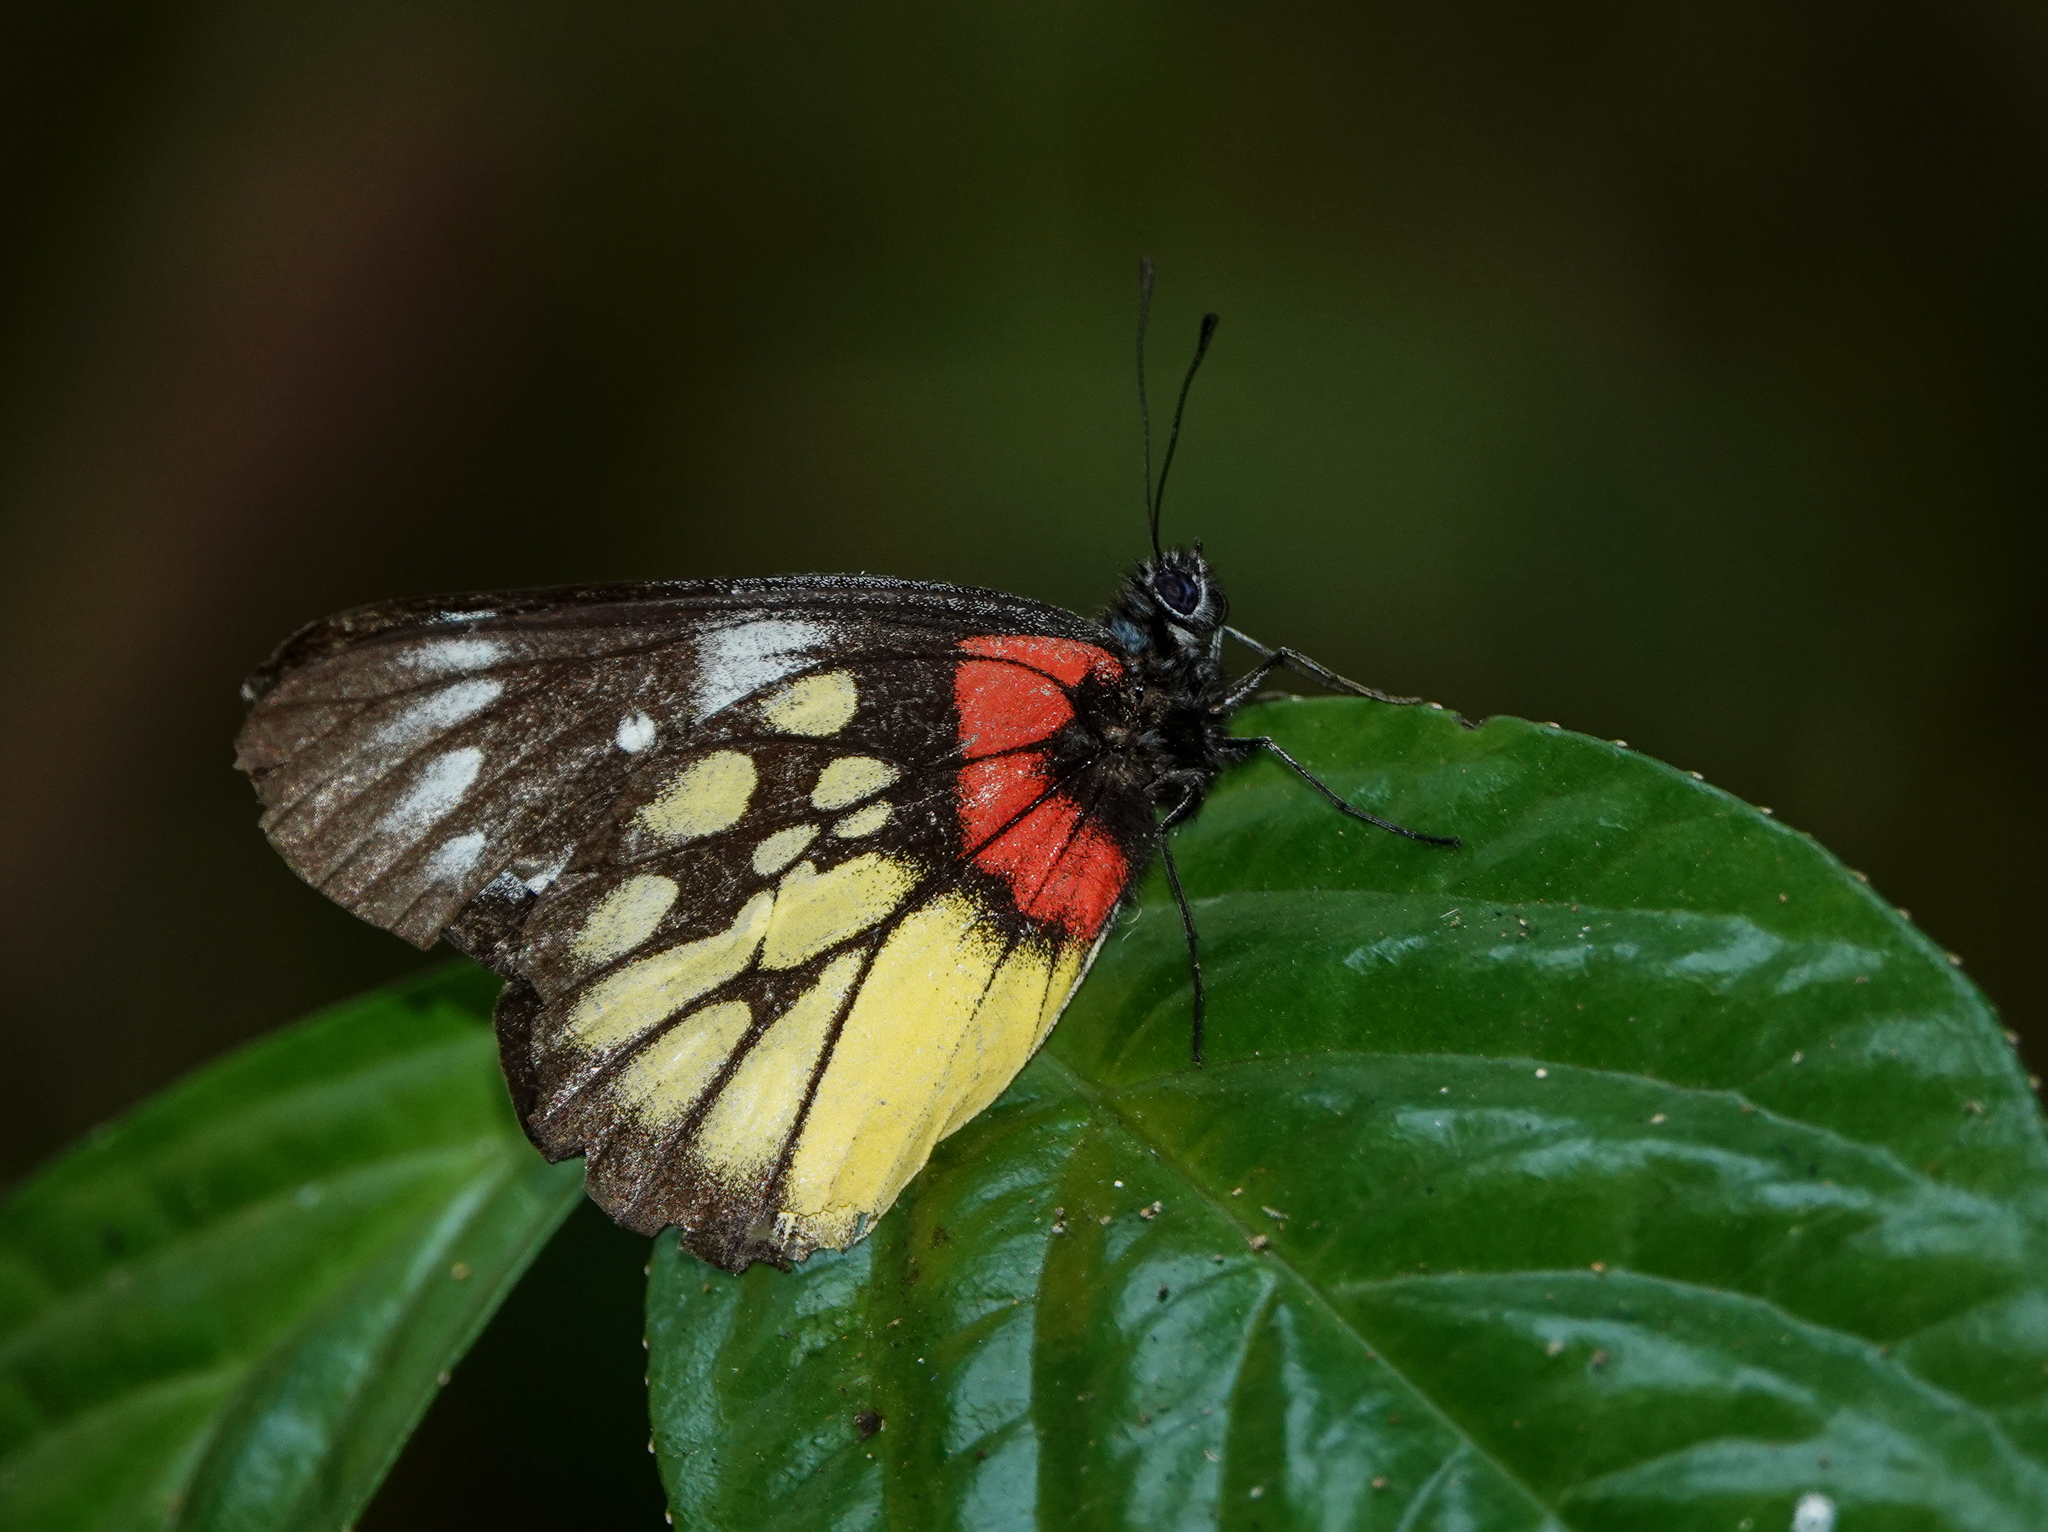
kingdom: Animalia
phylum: Arthropoda
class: Insecta
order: Lepidoptera
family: Pieridae
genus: Delias
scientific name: Delias pasithoe
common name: Red-base jezebel
